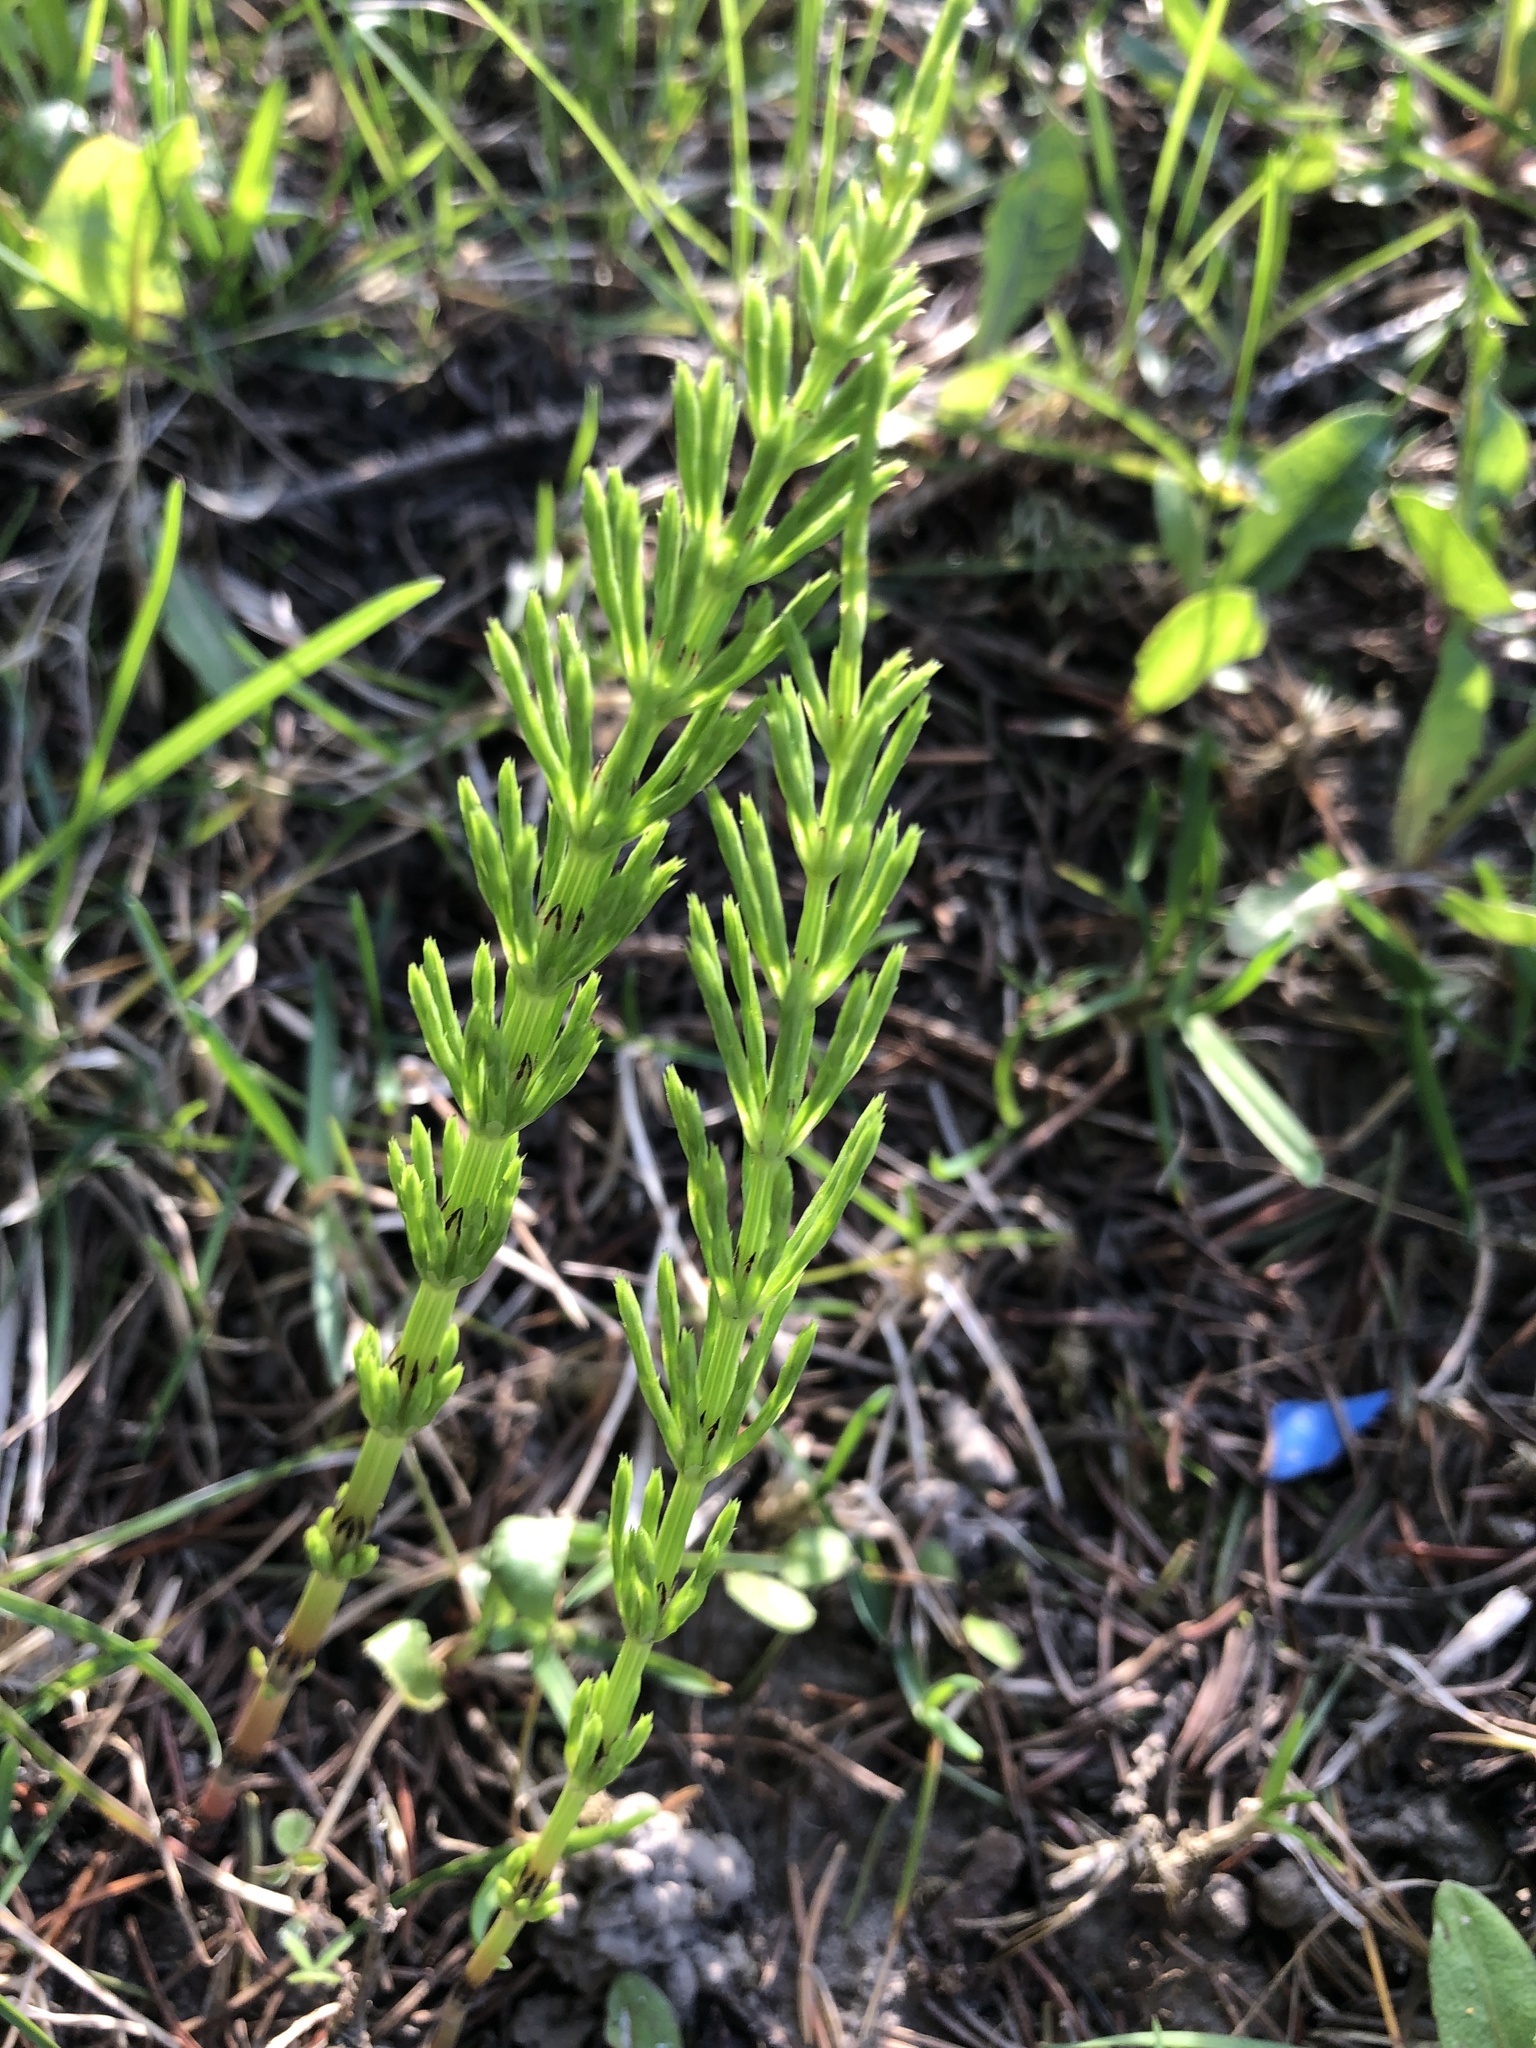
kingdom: Plantae
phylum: Tracheophyta
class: Polypodiopsida
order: Equisetales
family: Equisetaceae
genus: Equisetum
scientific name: Equisetum arvense
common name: Field horsetail
